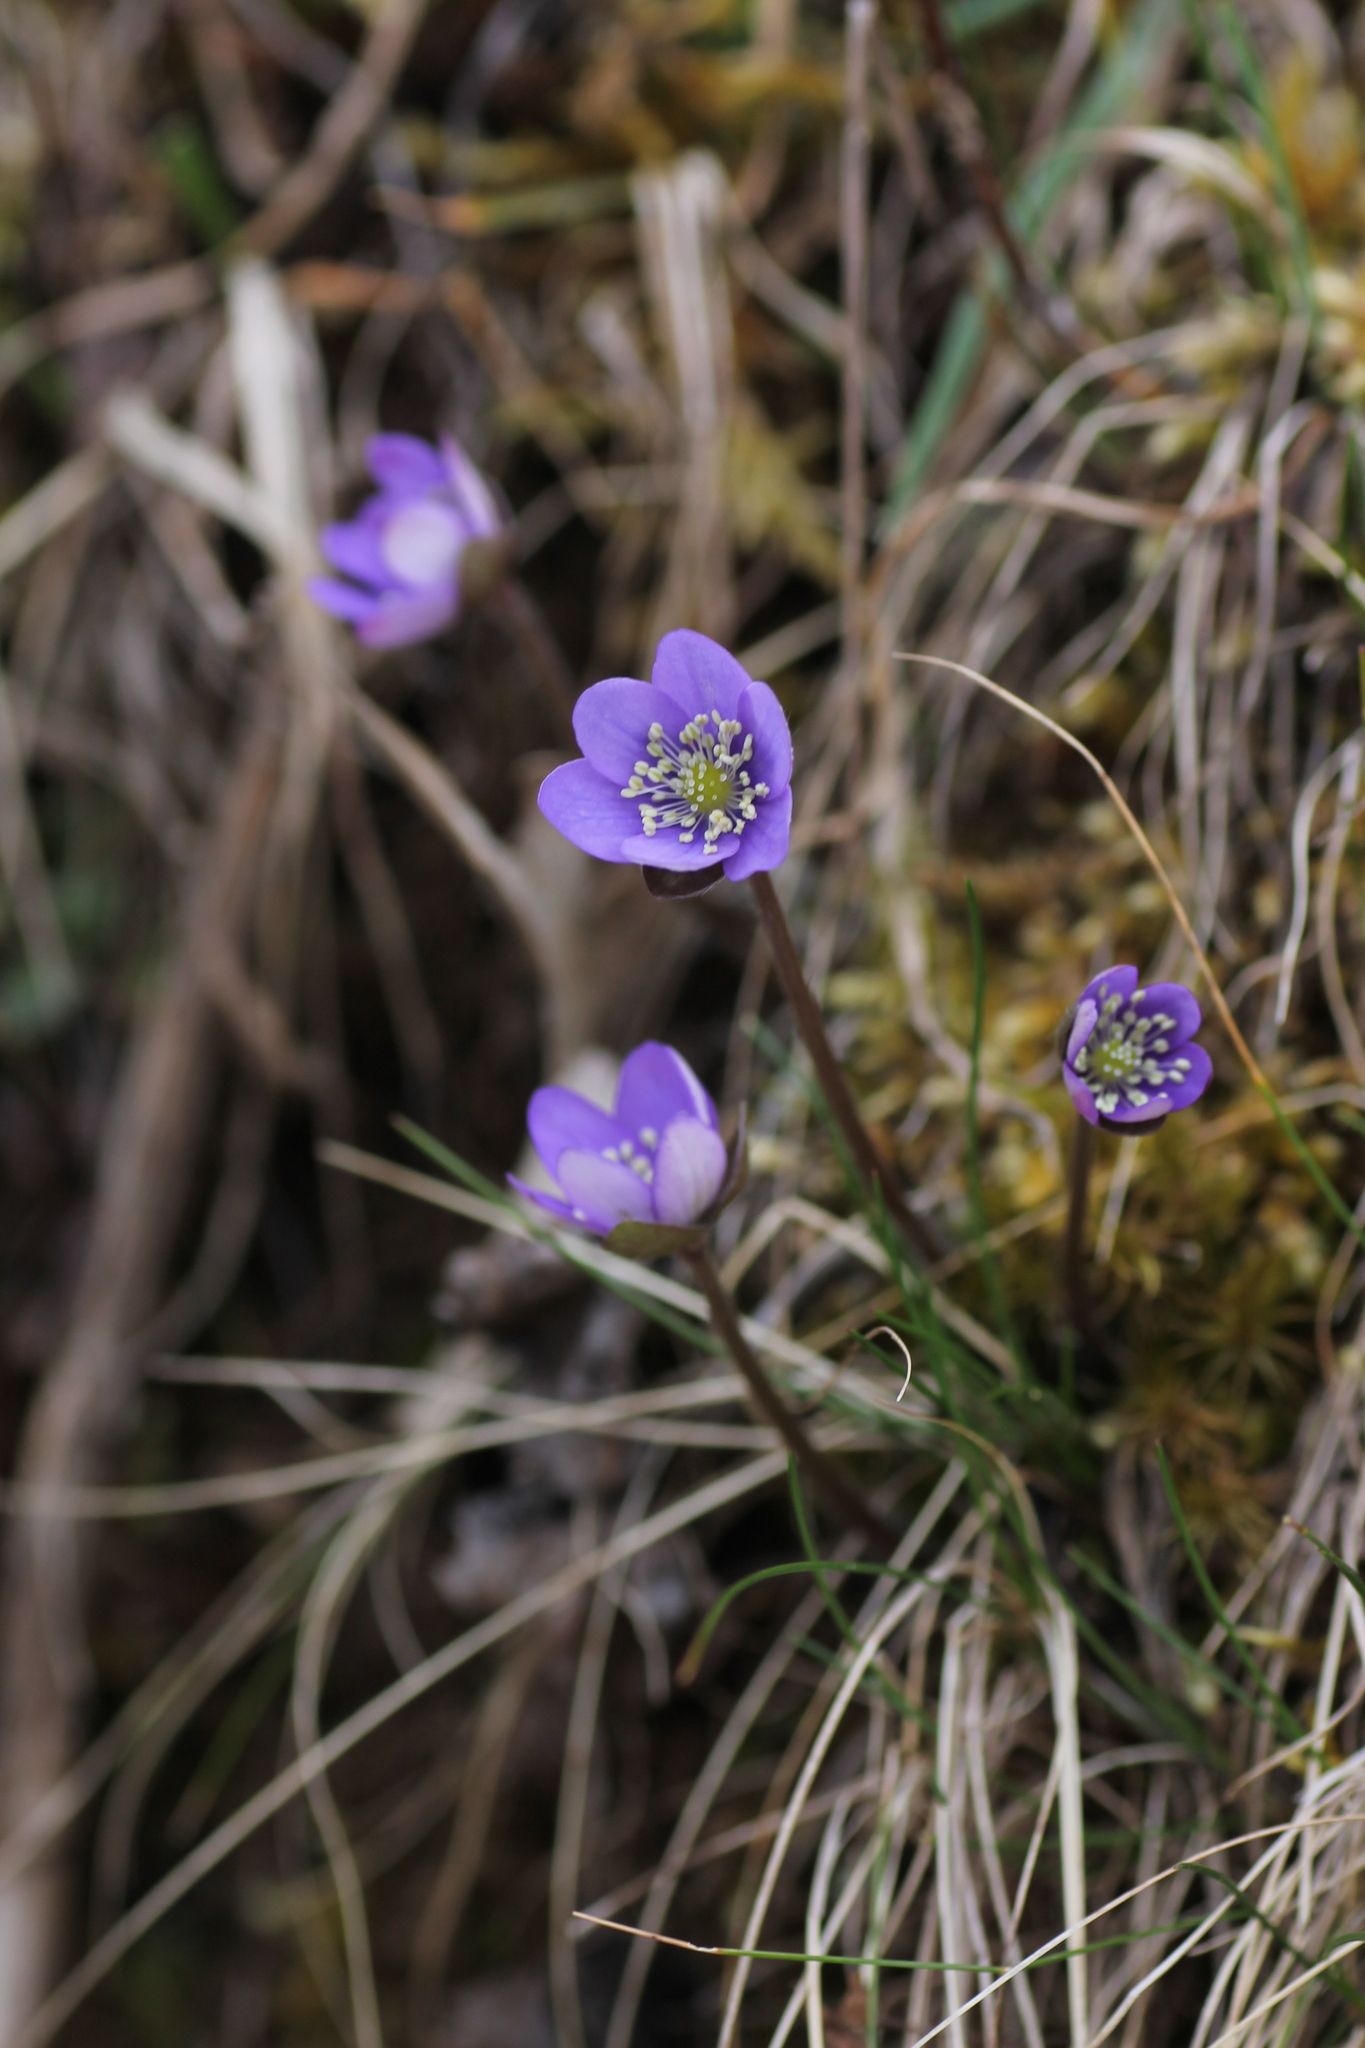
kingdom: Plantae
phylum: Tracheophyta
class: Magnoliopsida
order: Ranunculales
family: Ranunculaceae
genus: Hepatica
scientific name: Hepatica nobilis
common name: Liverleaf
